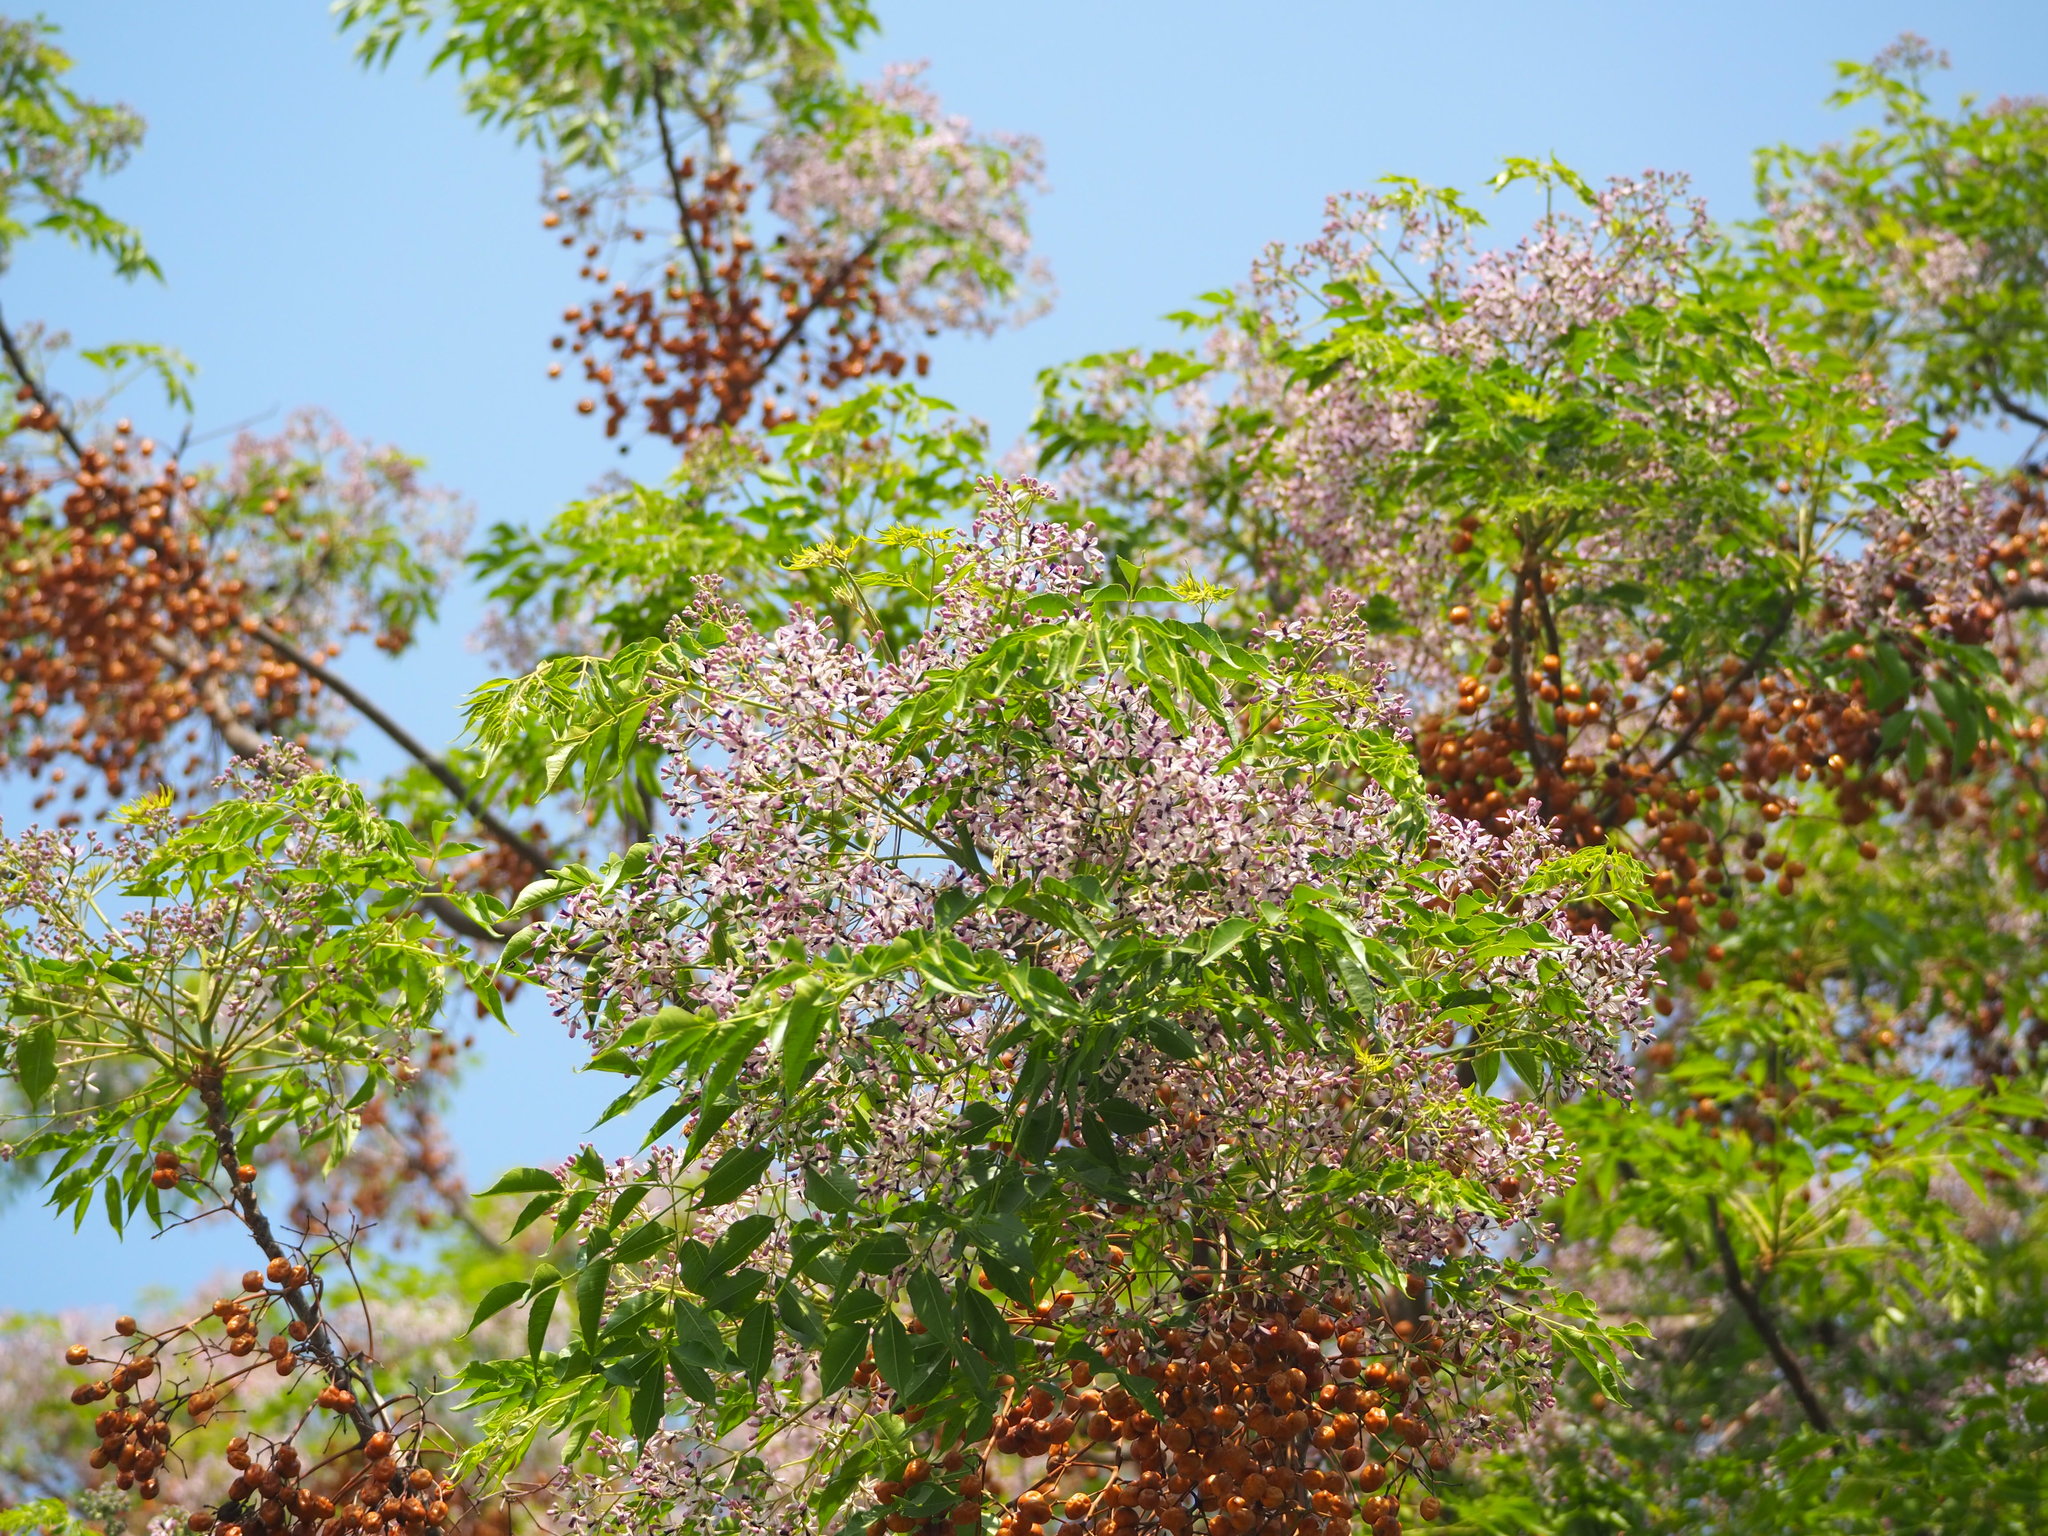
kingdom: Plantae
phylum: Tracheophyta
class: Magnoliopsida
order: Sapindales
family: Meliaceae
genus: Melia
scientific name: Melia azedarach
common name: Chinaberrytree
